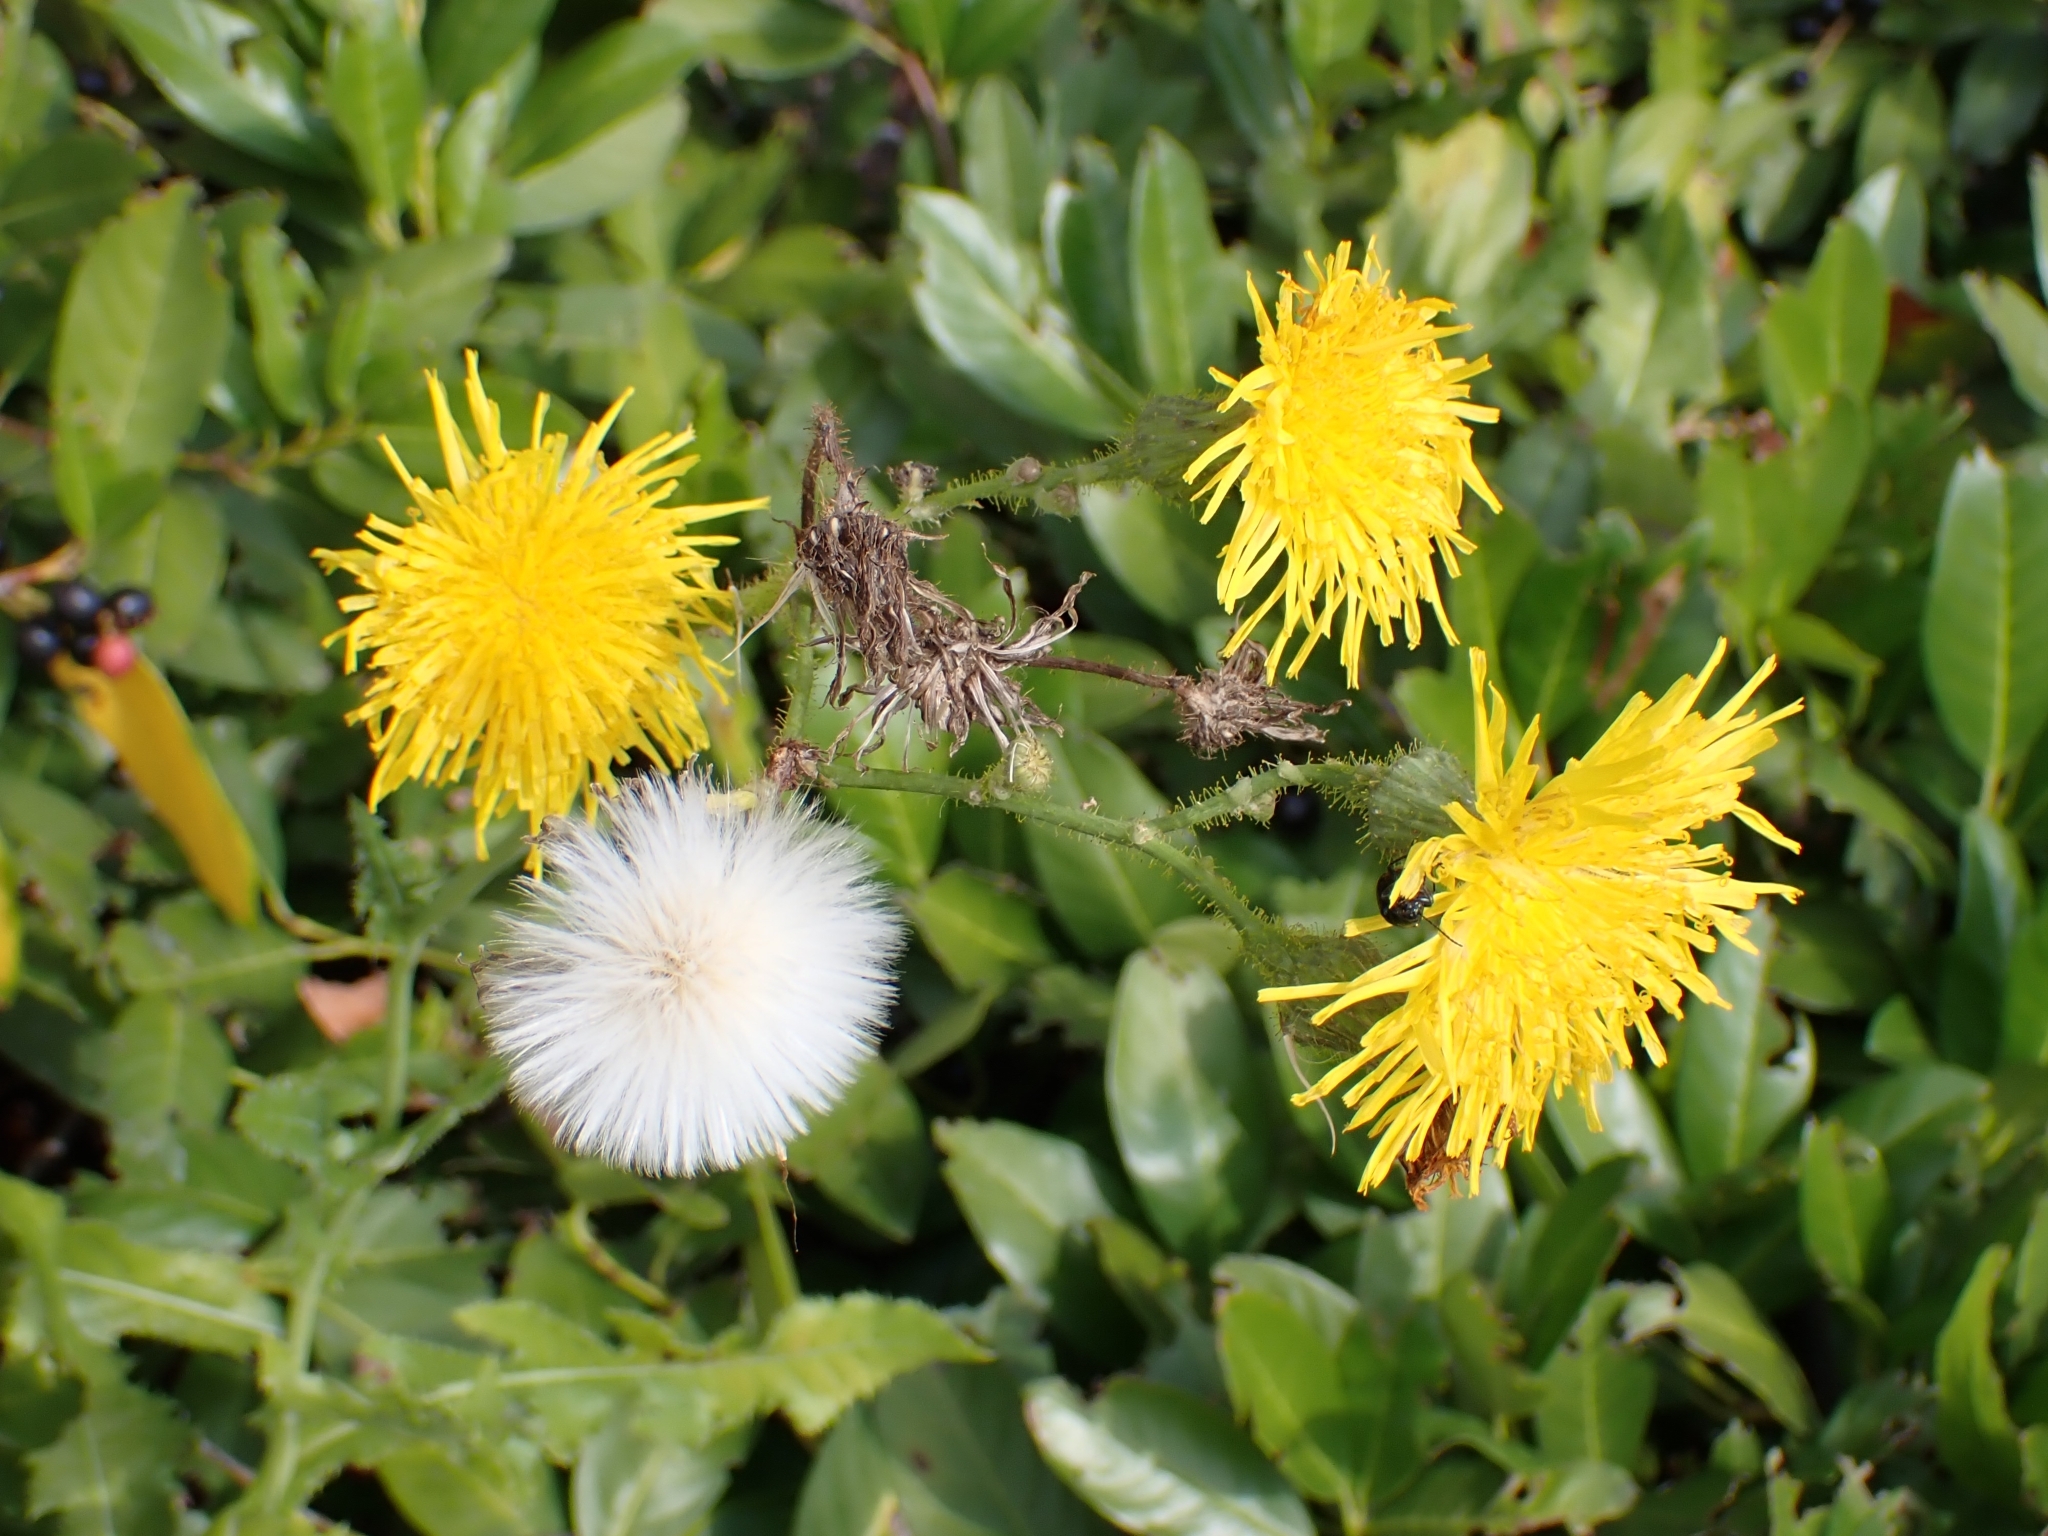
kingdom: Plantae
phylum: Tracheophyta
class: Magnoliopsida
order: Asterales
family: Asteraceae
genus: Sonchus
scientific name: Sonchus arvensis
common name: Perennial sow-thistle
